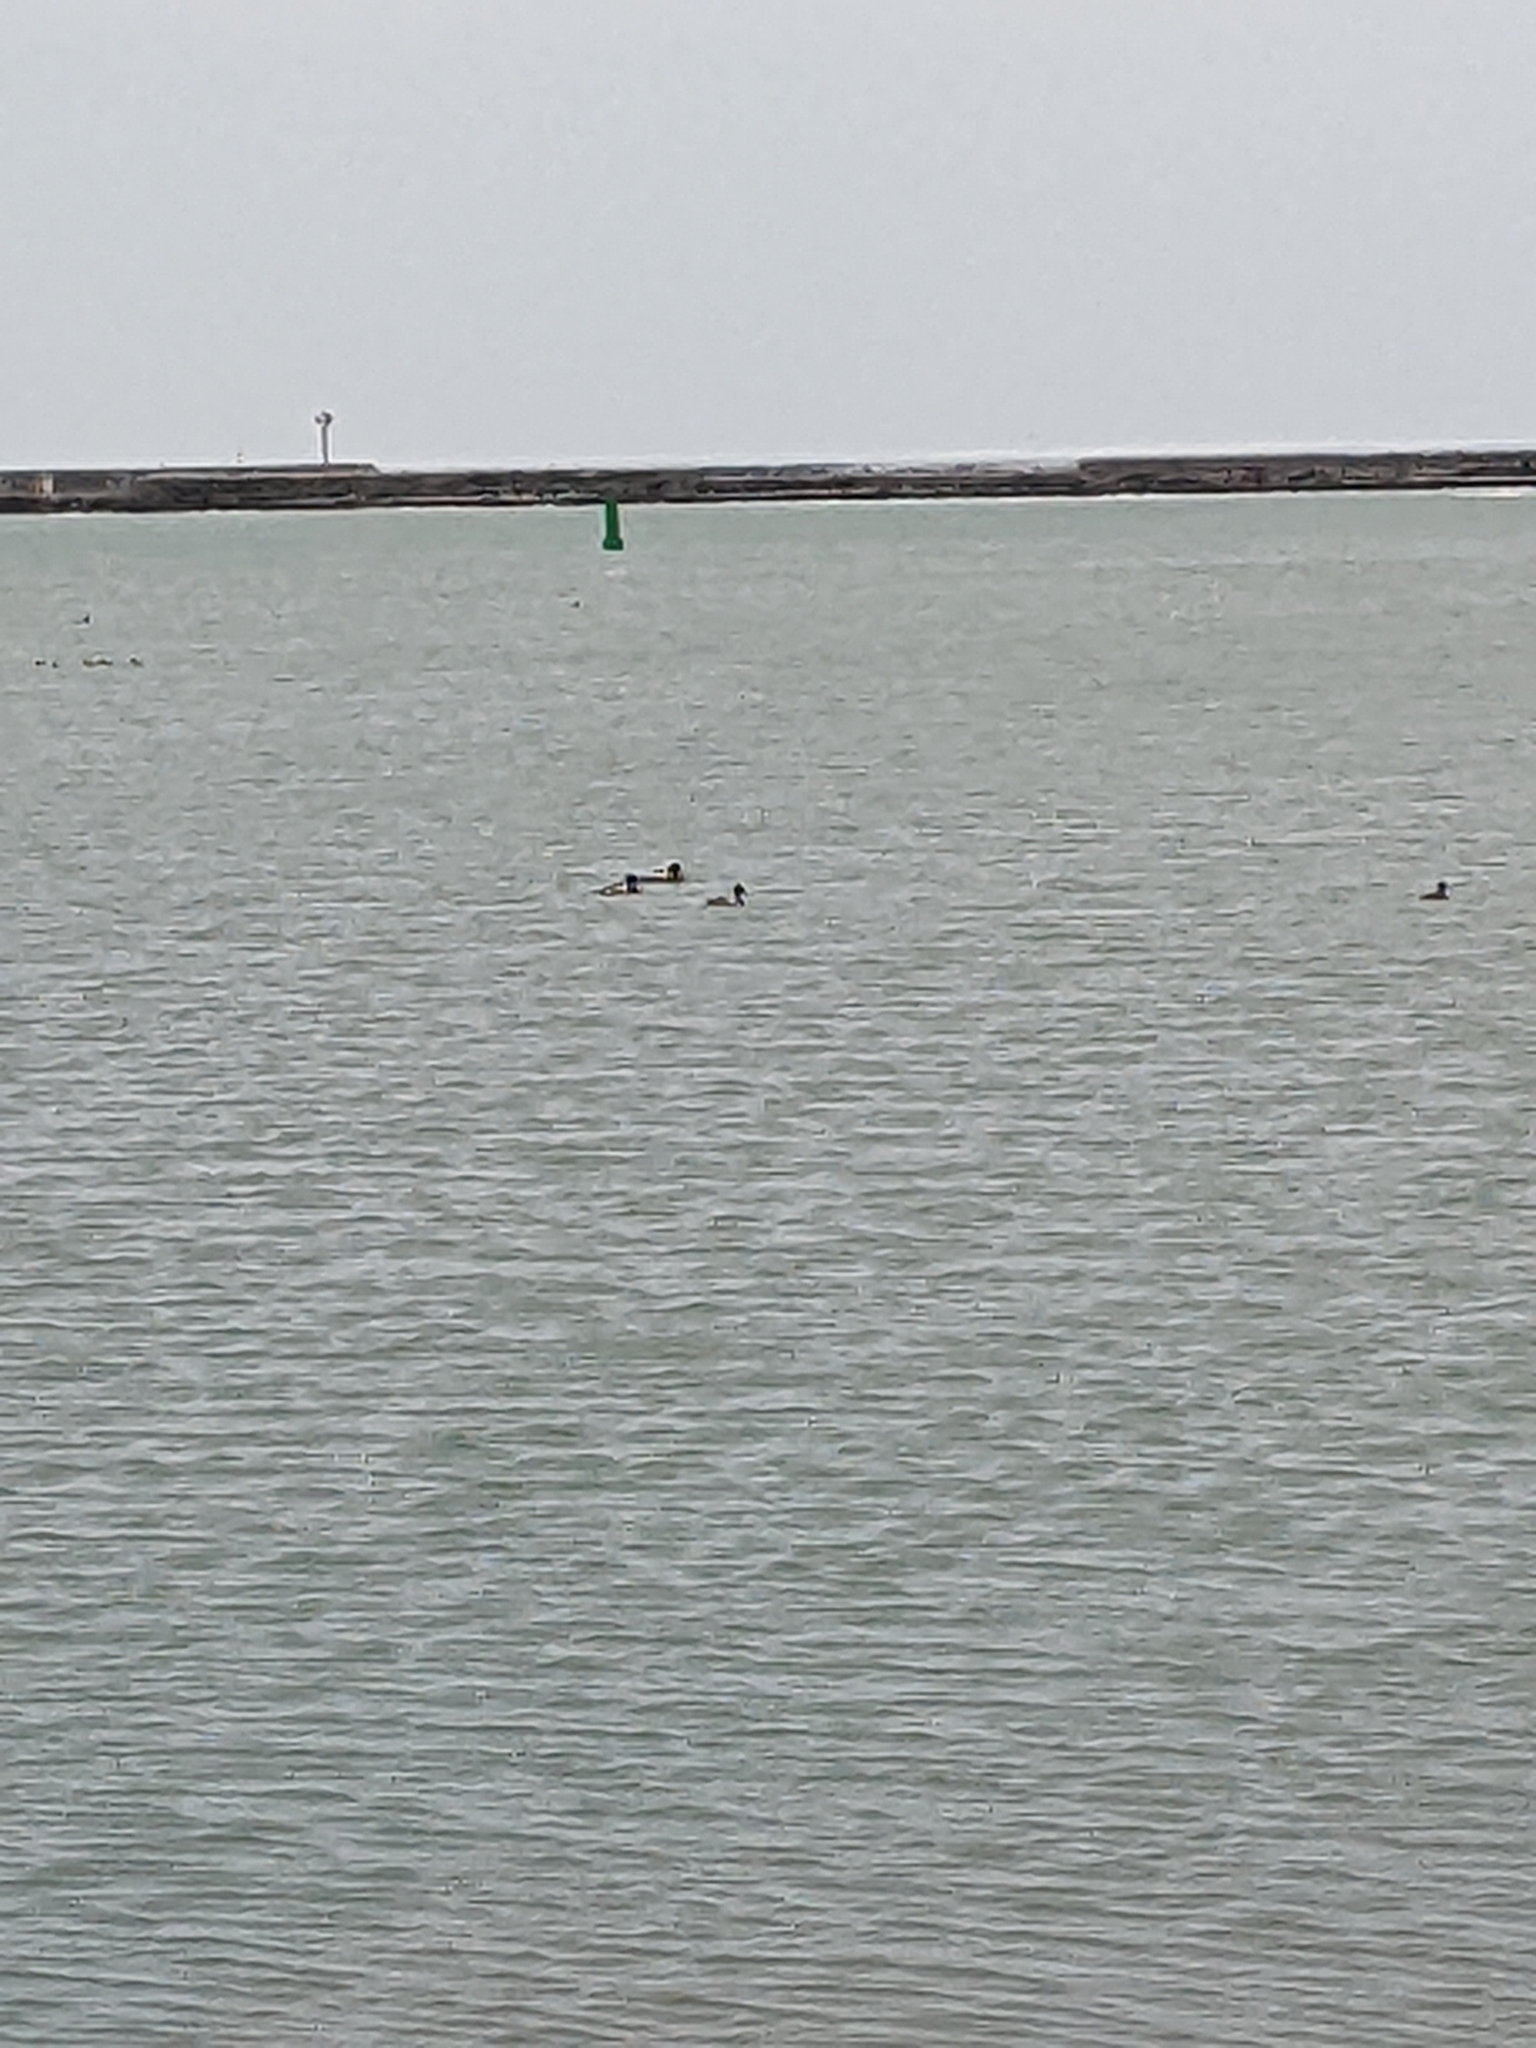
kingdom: Animalia
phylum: Chordata
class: Aves
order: Anseriformes
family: Anatidae
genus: Mergus
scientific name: Mergus serrator
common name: Red-breasted merganser
